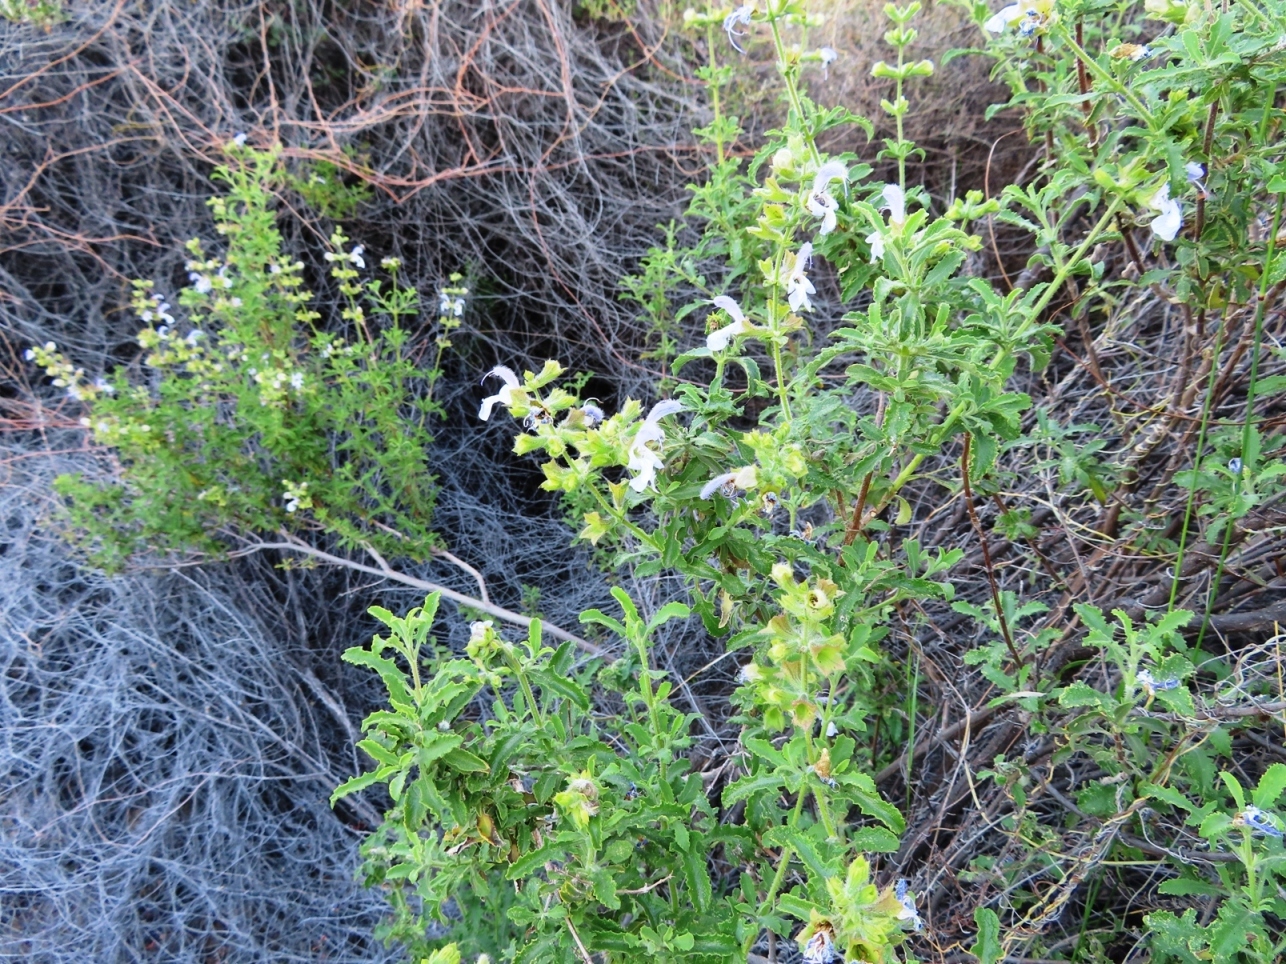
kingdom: Plantae
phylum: Tracheophyta
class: Magnoliopsida
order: Lamiales
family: Lamiaceae
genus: Salvia
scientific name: Salvia dentata
